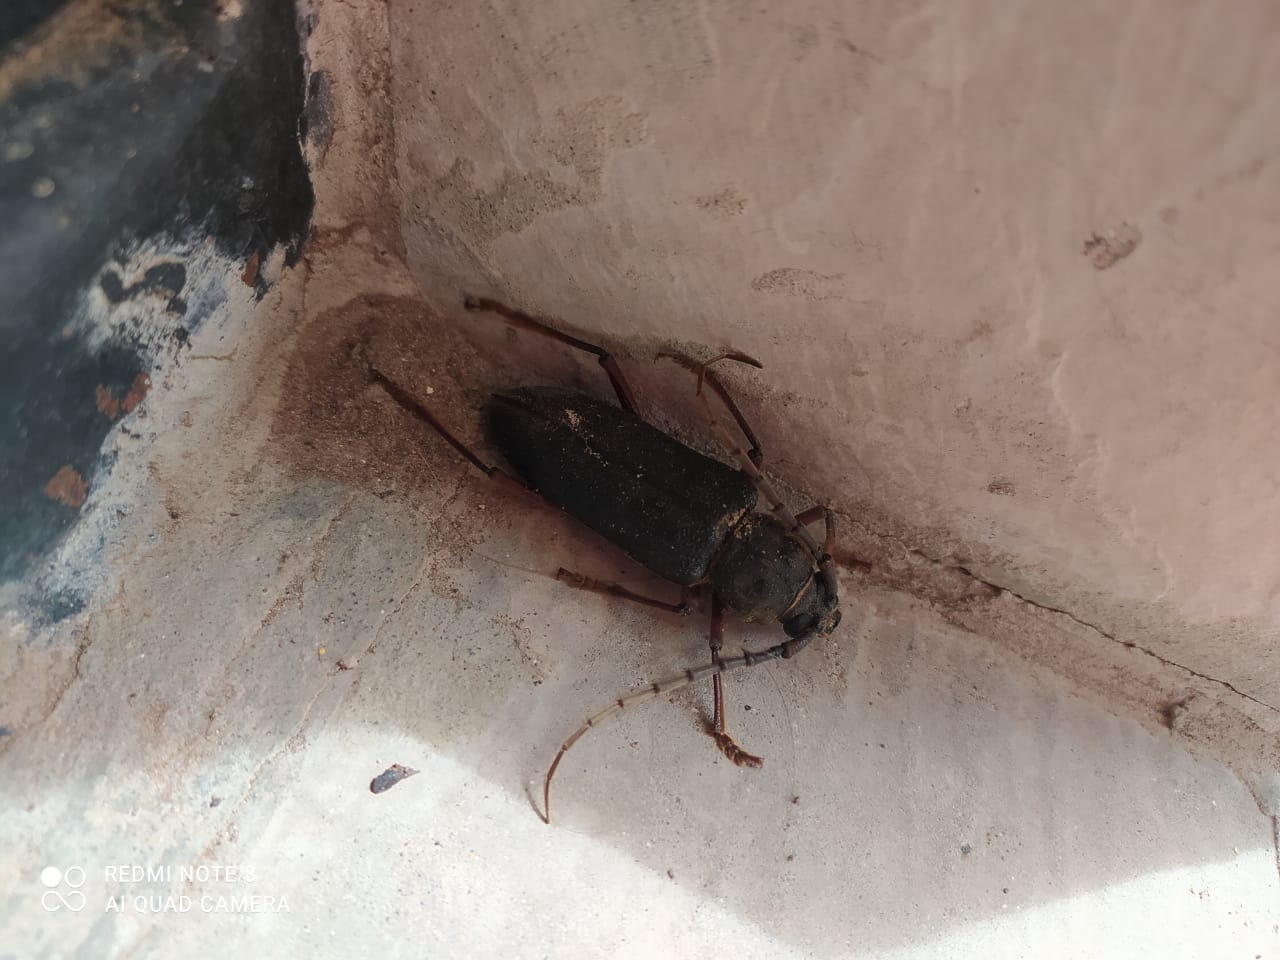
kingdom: Animalia
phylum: Arthropoda
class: Insecta
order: Coleoptera
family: Cerambycidae
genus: Orion
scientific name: Orion maurus
